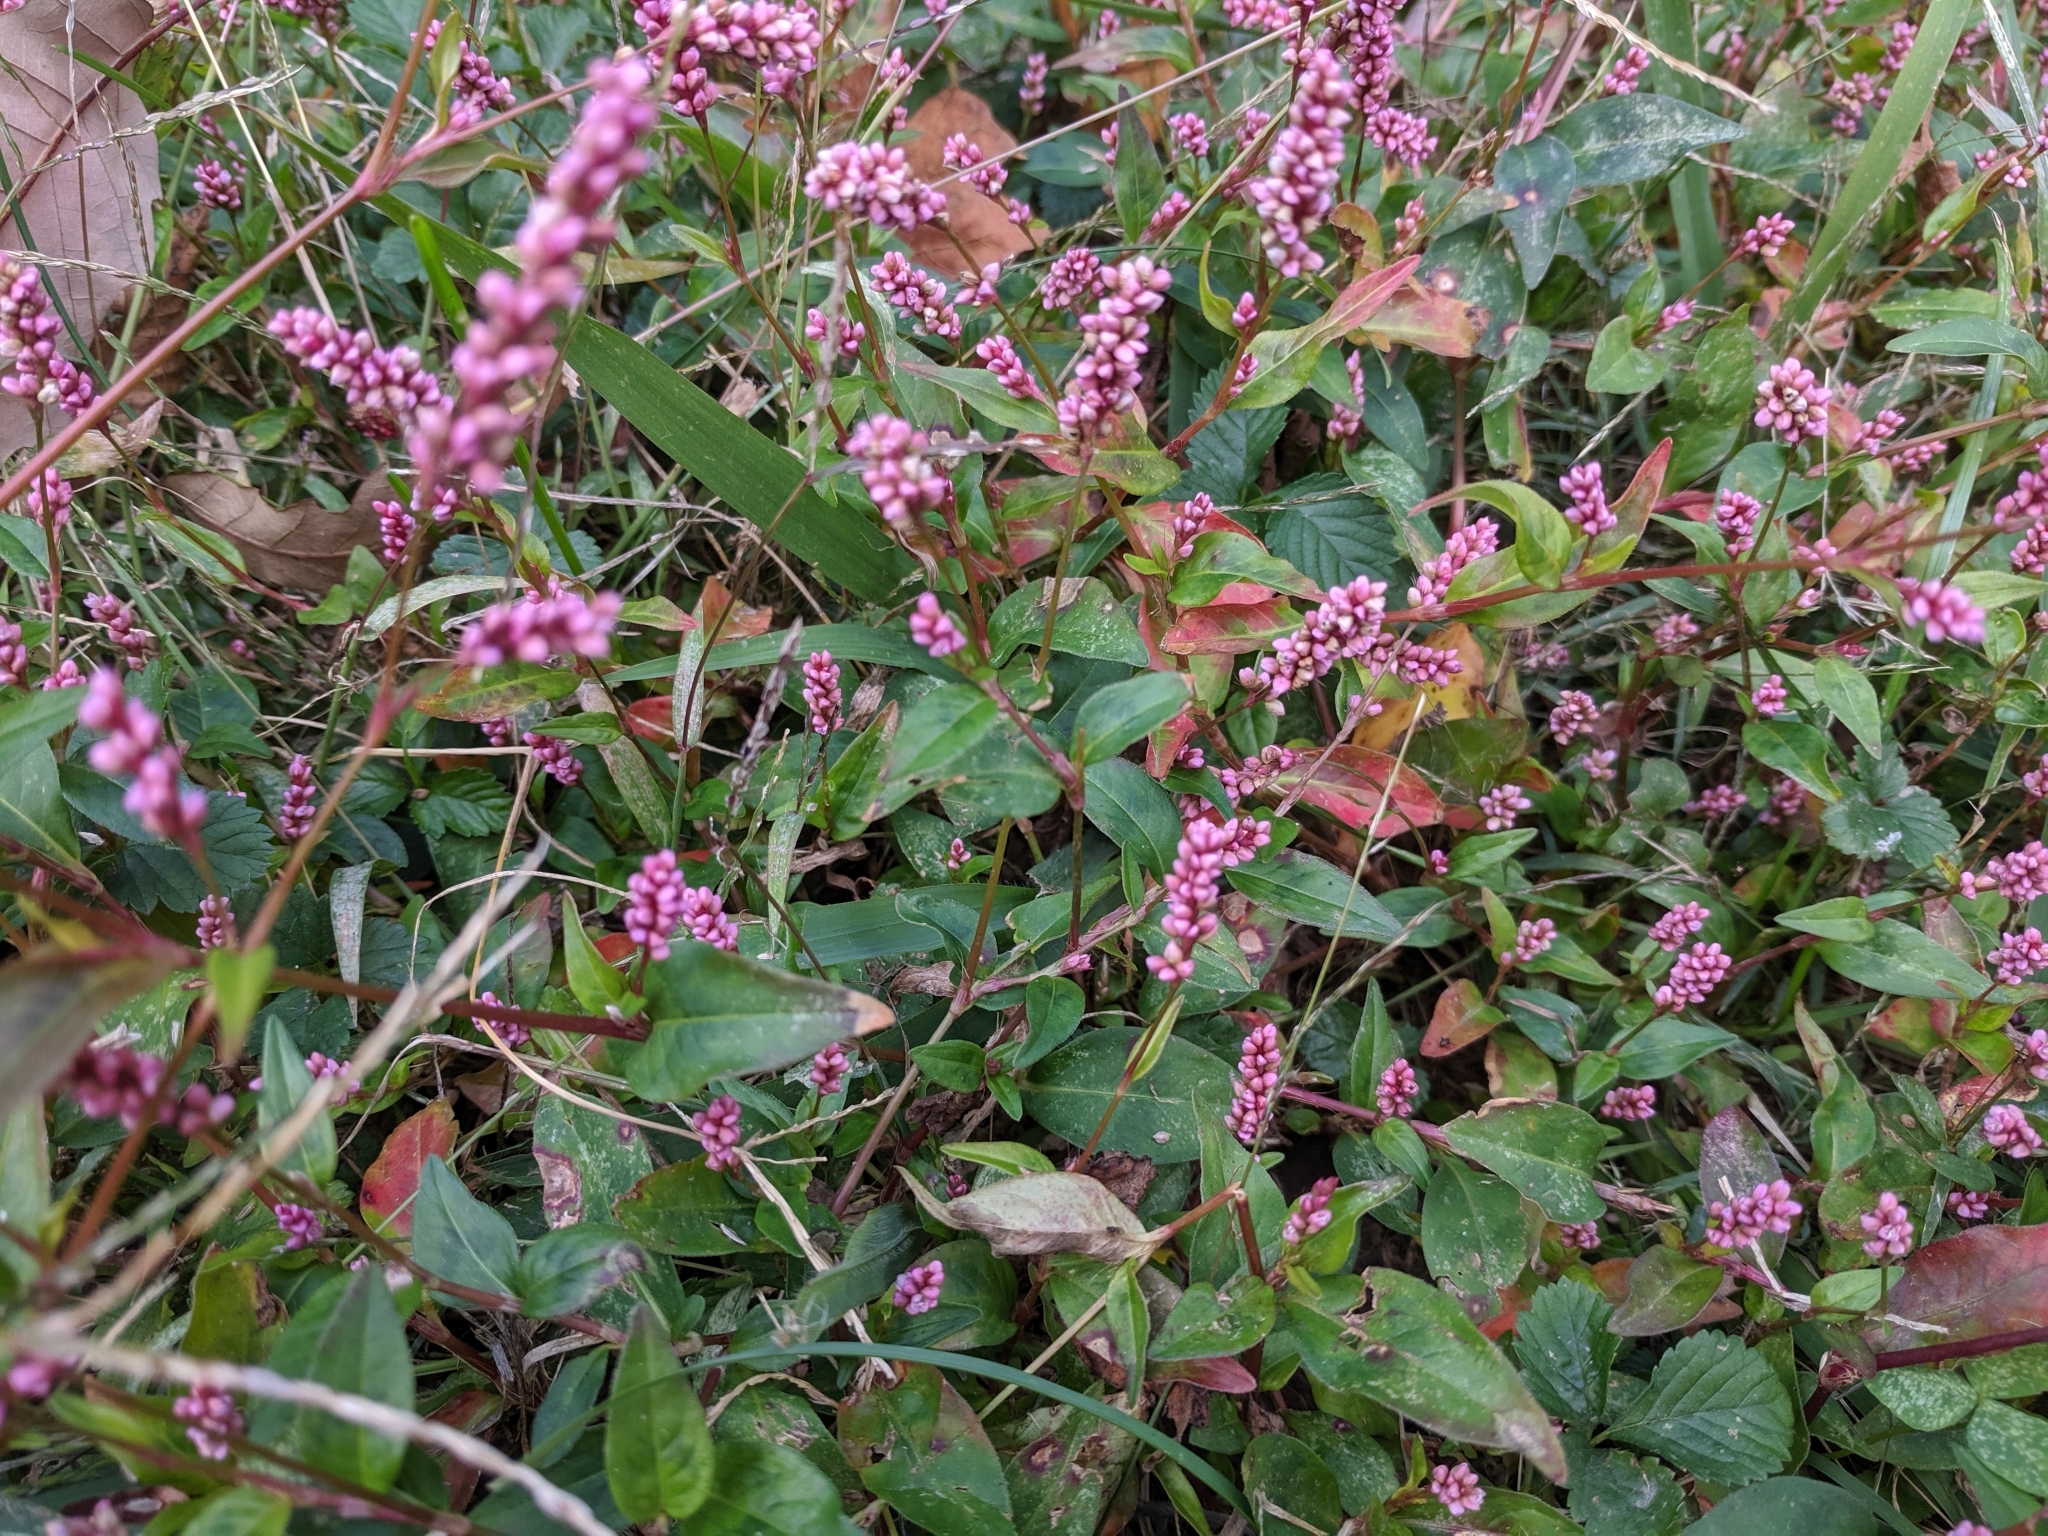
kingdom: Plantae
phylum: Tracheophyta
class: Magnoliopsida
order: Caryophyllales
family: Polygonaceae
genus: Persicaria
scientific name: Persicaria longiseta
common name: Bristly lady's-thumb
